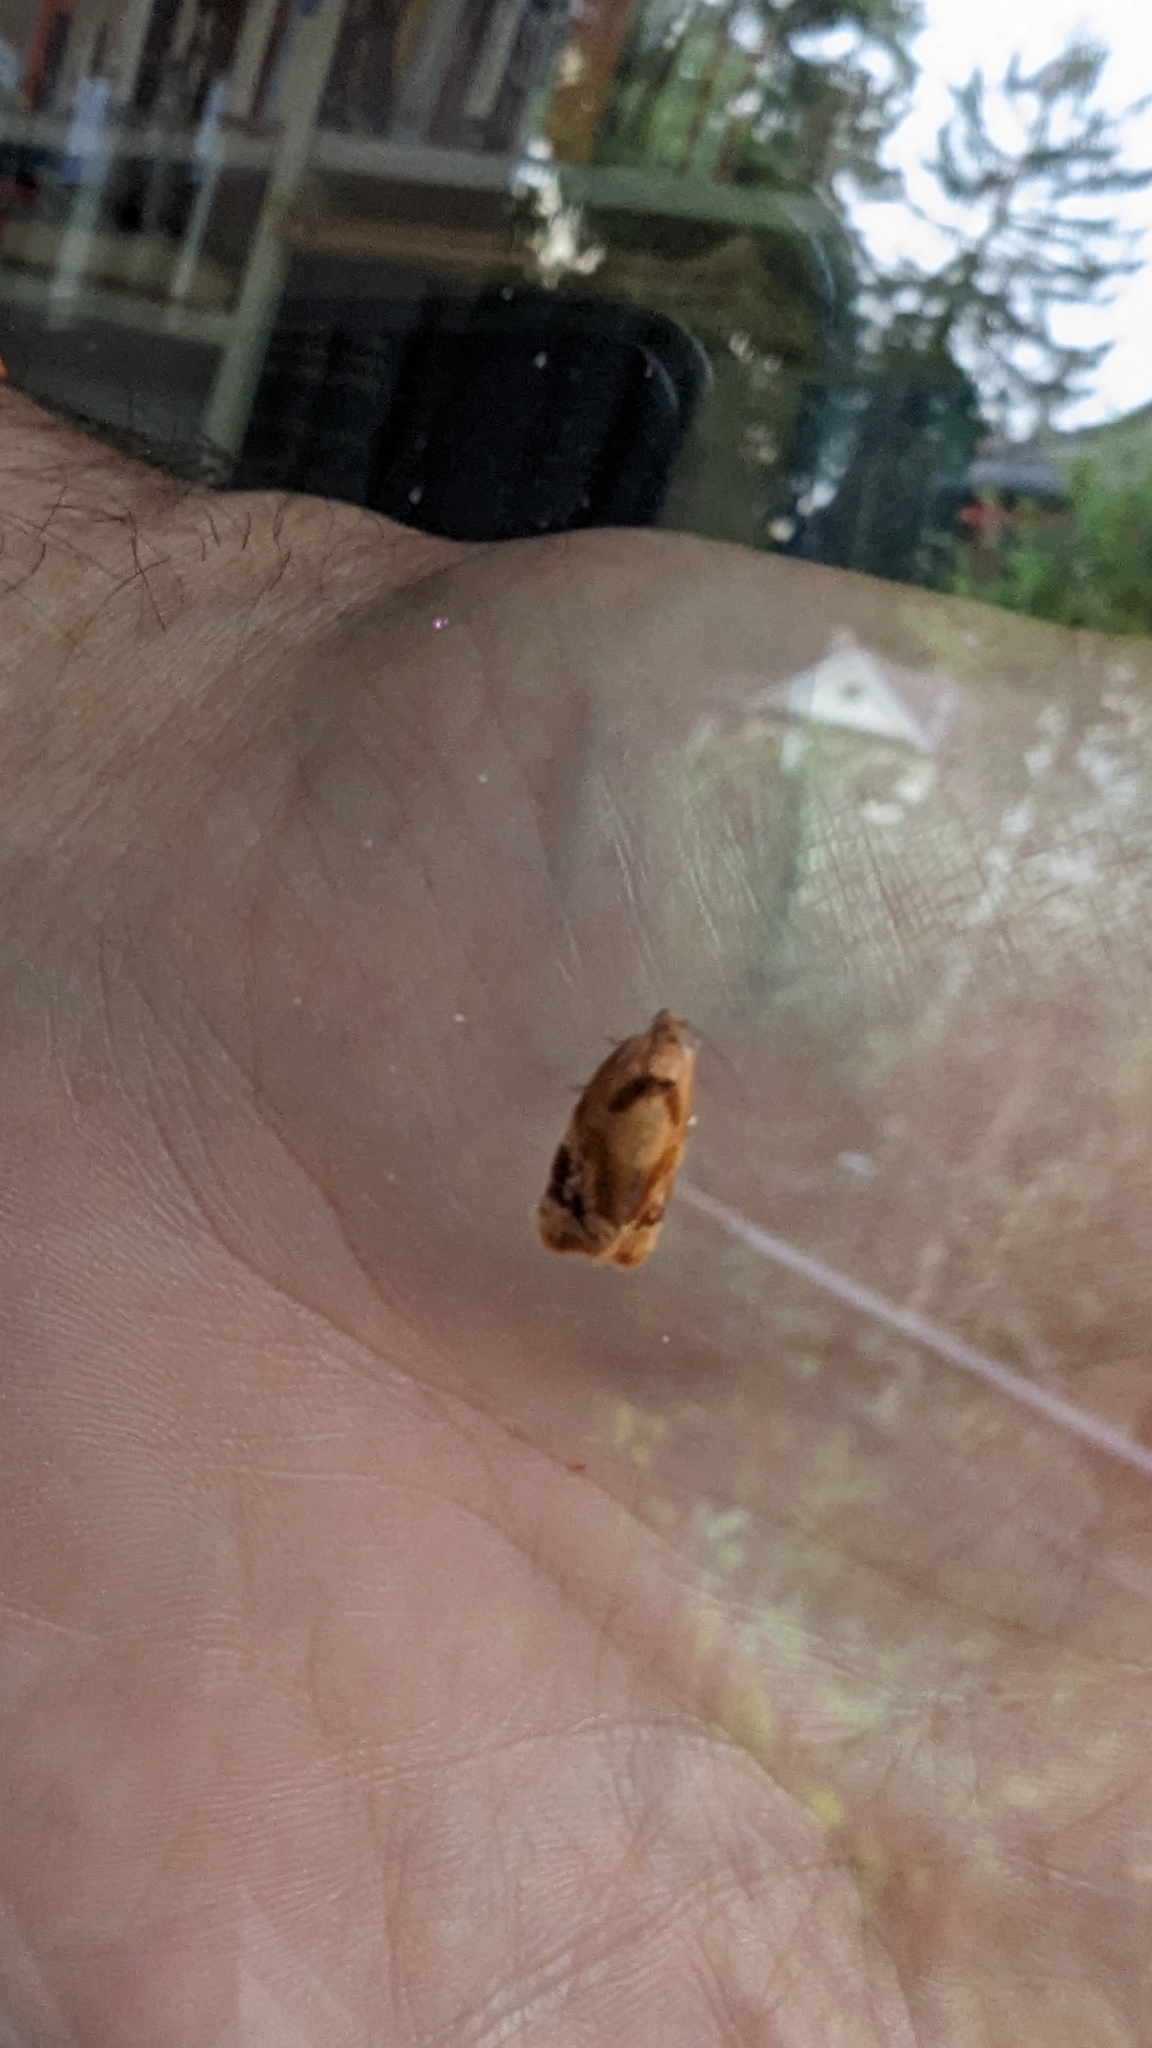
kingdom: Animalia
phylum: Arthropoda
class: Insecta
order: Lepidoptera
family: Tortricidae
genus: Ditula
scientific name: Ditula angustiorana
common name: Red-barred tortrix
